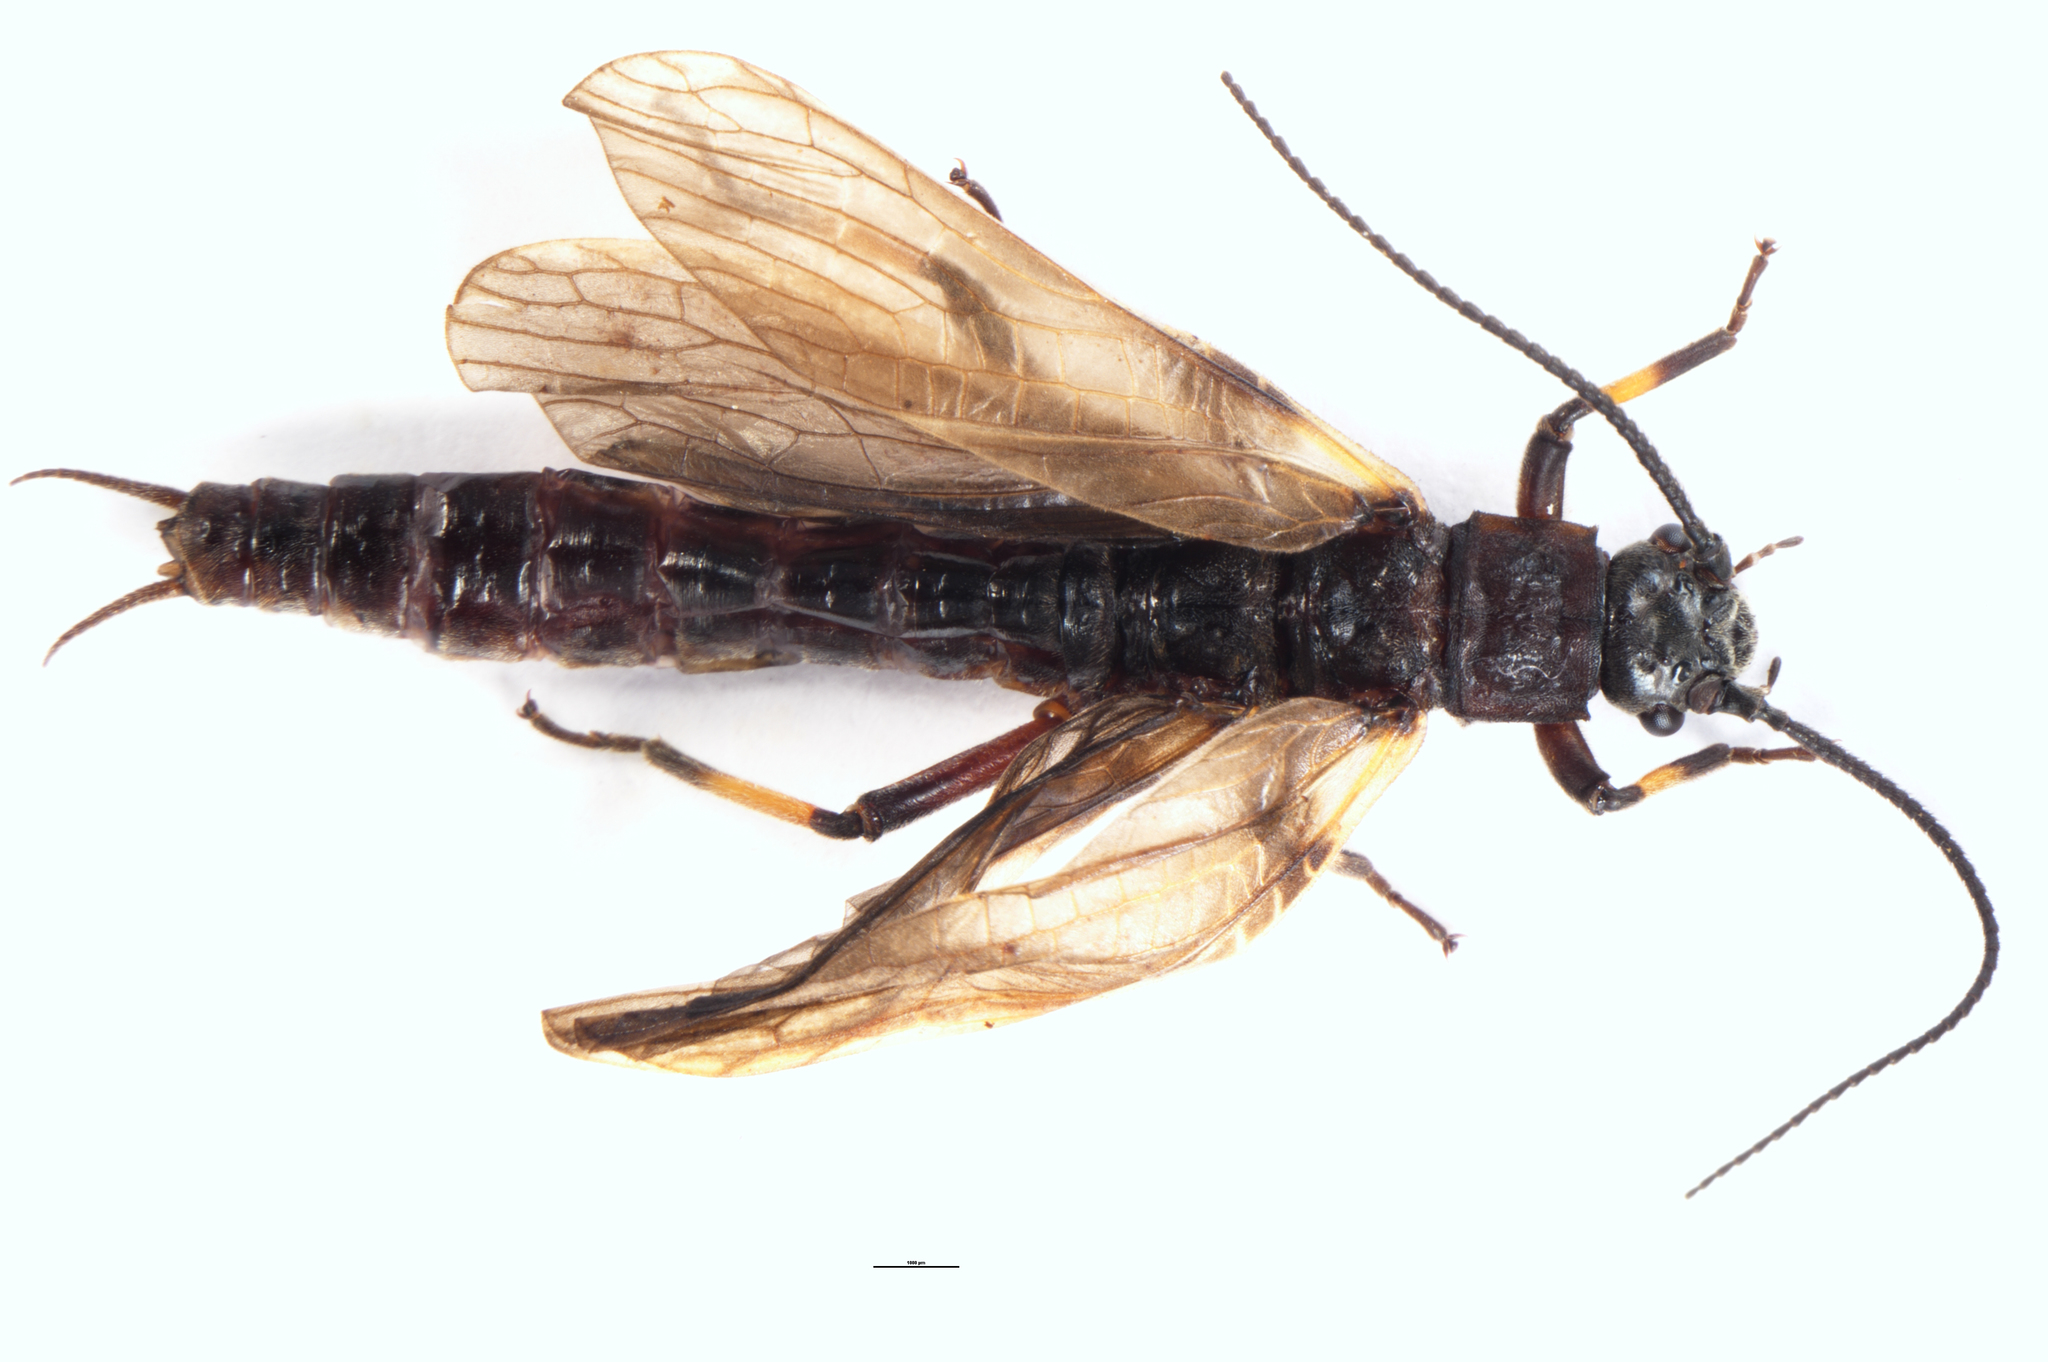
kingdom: Animalia
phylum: Arthropoda
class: Insecta
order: Plecoptera
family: Austroperlidae
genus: Austroperla
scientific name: Austroperla cyrene
